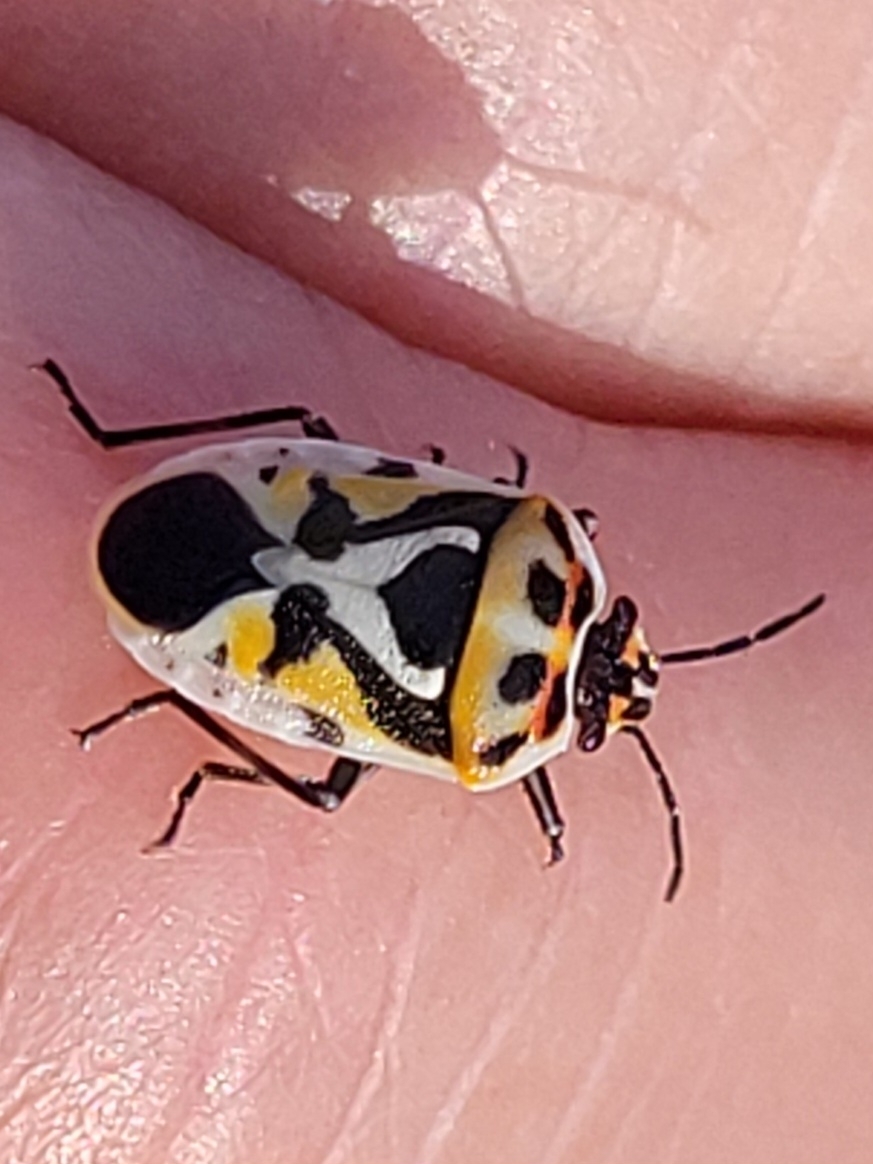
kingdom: Animalia
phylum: Arthropoda
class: Insecta
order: Hemiptera
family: Pentatomidae
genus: Eurydema
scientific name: Eurydema ornata
